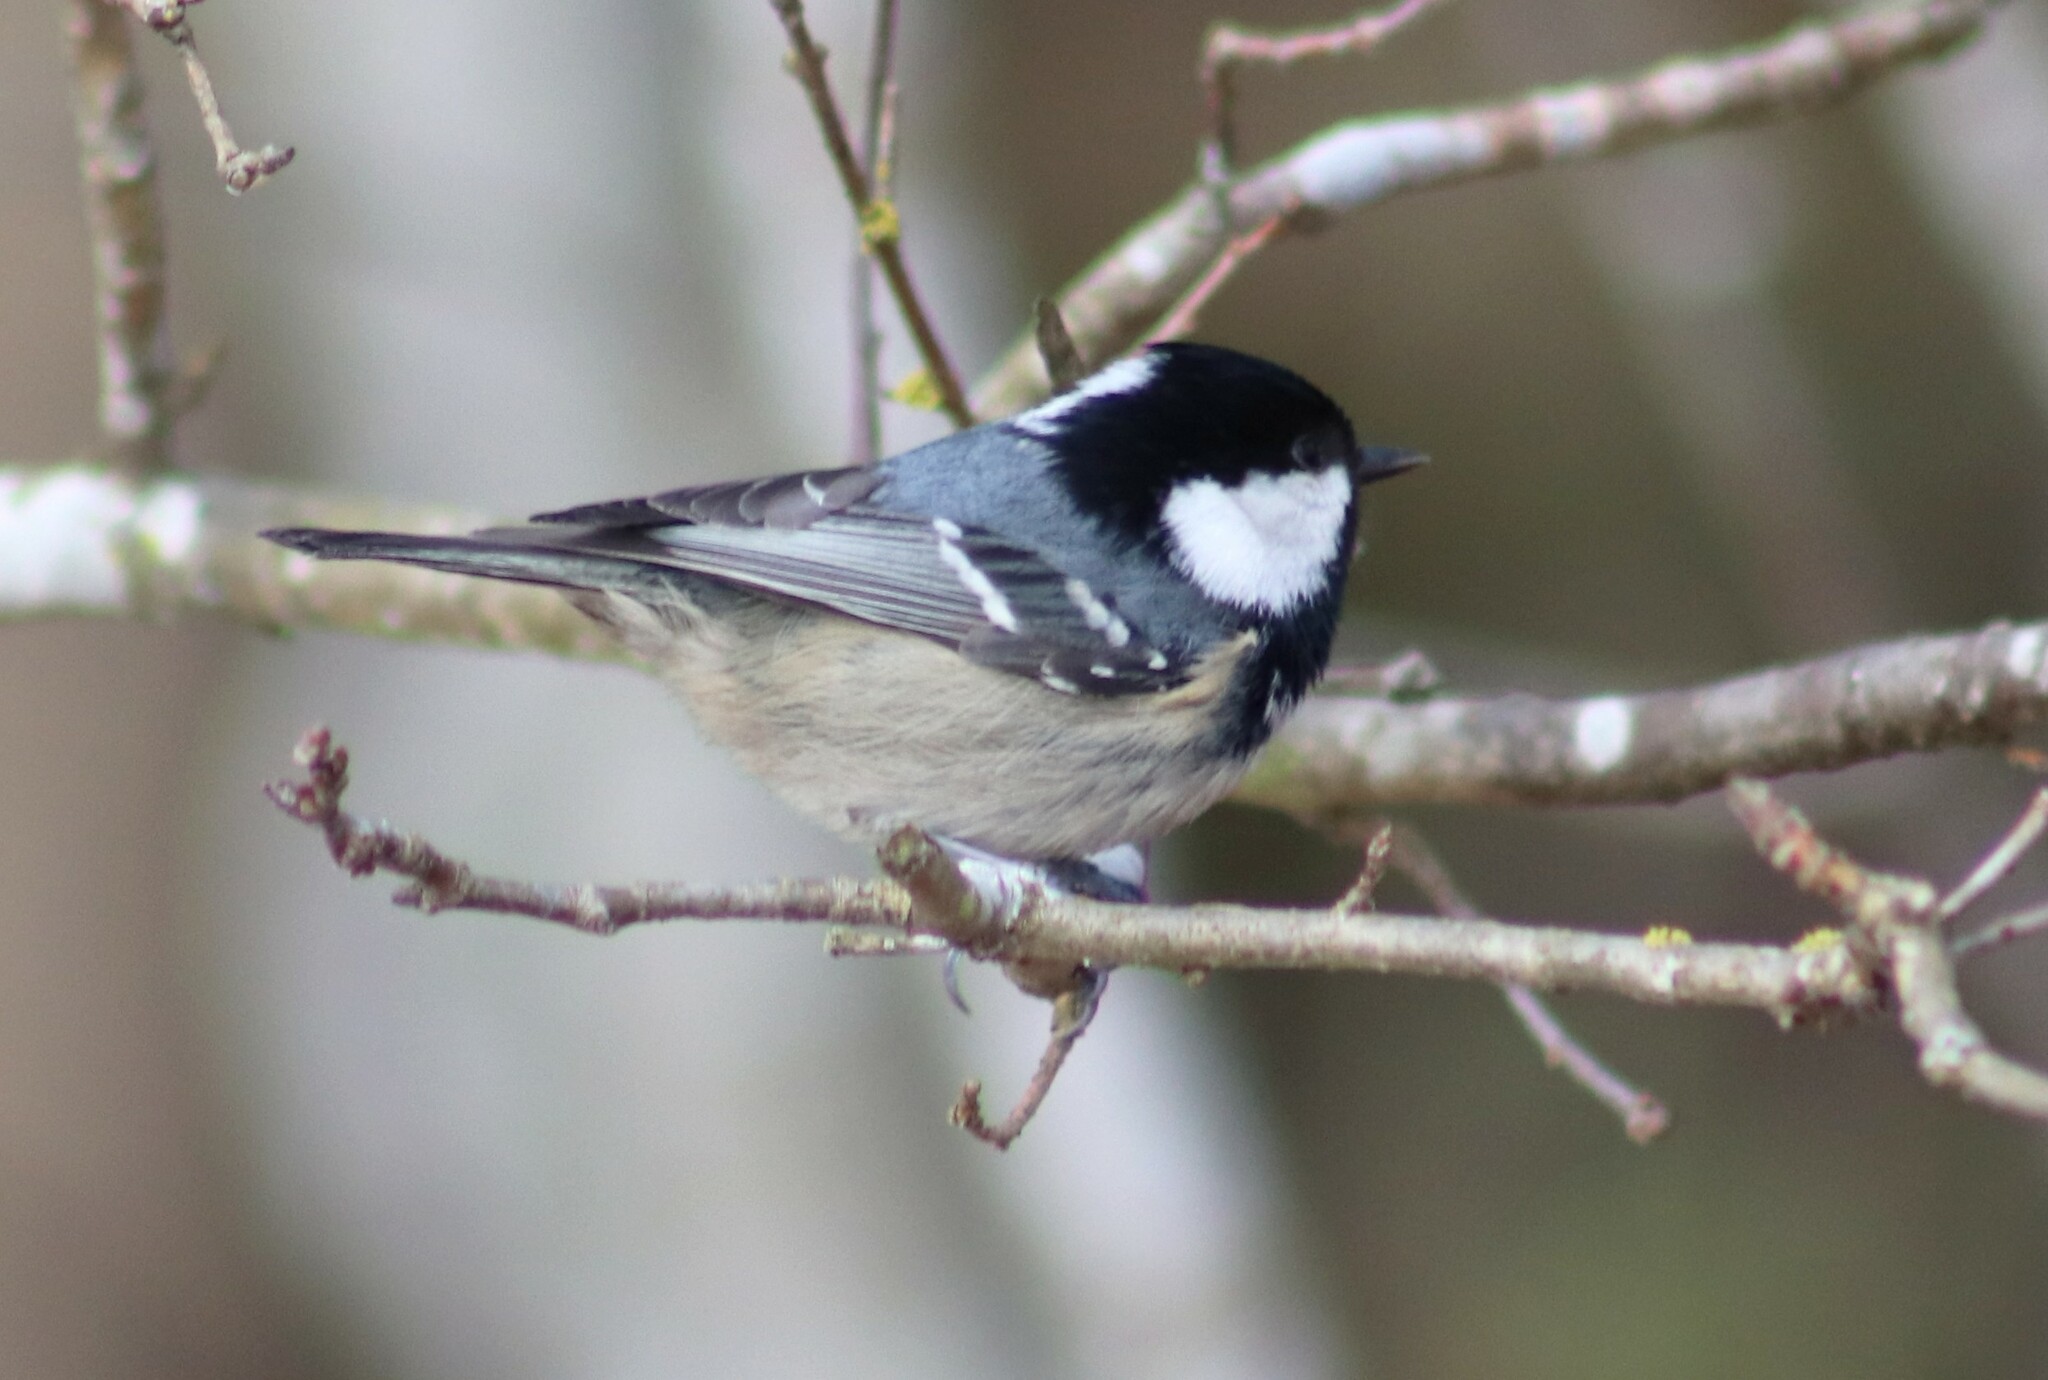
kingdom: Animalia
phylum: Chordata
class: Aves
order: Passeriformes
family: Paridae
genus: Periparus
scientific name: Periparus ater
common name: Coal tit
